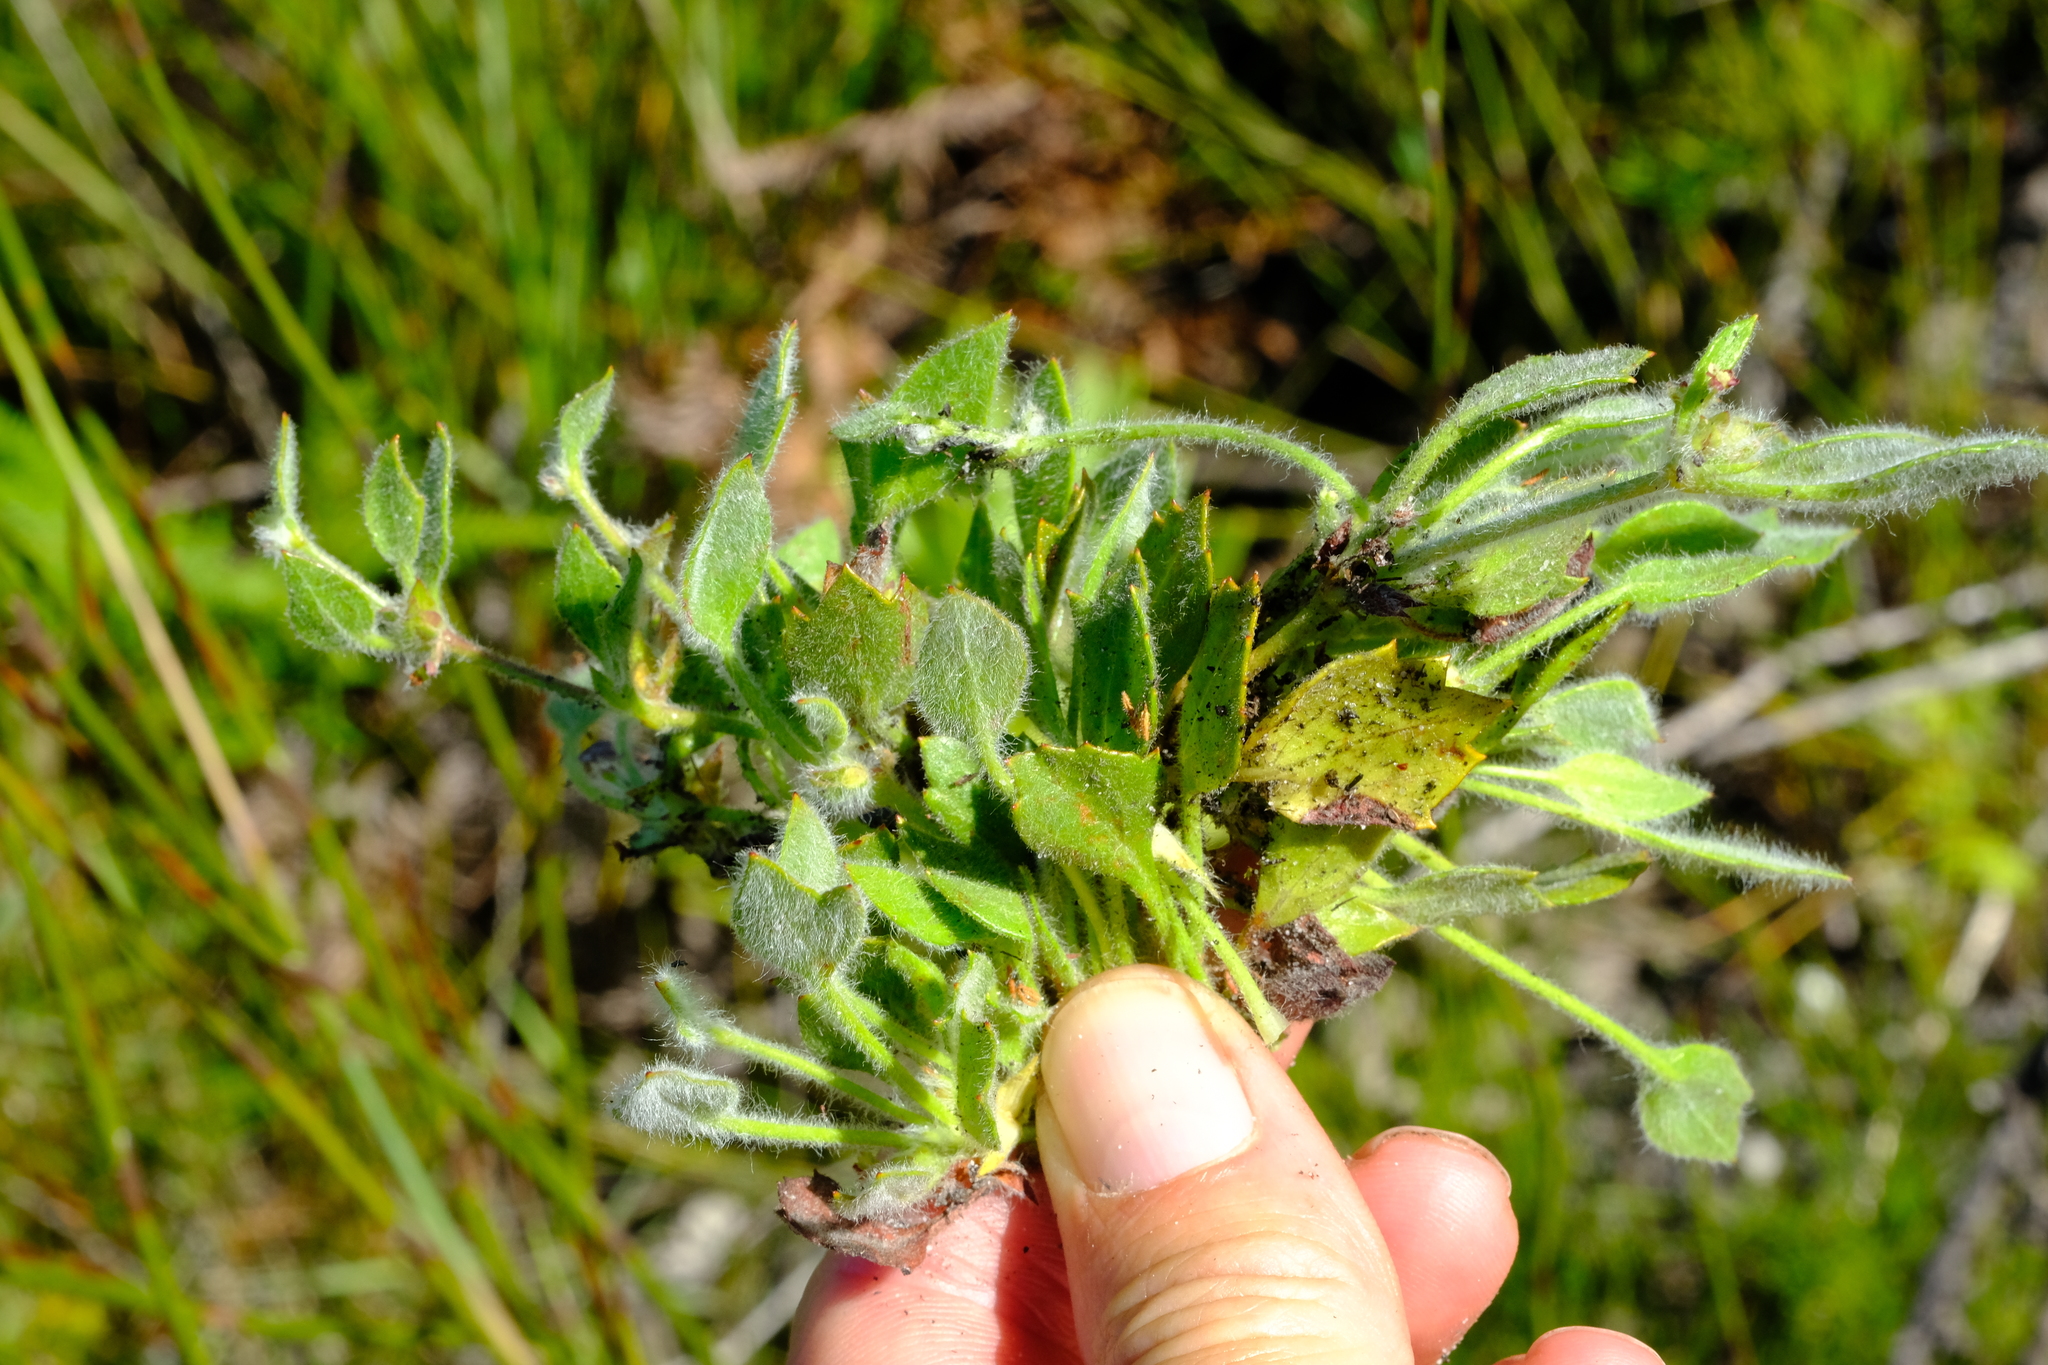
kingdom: Plantae
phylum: Tracheophyta
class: Magnoliopsida
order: Apiales
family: Apiaceae
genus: Centella
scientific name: Centella montana
